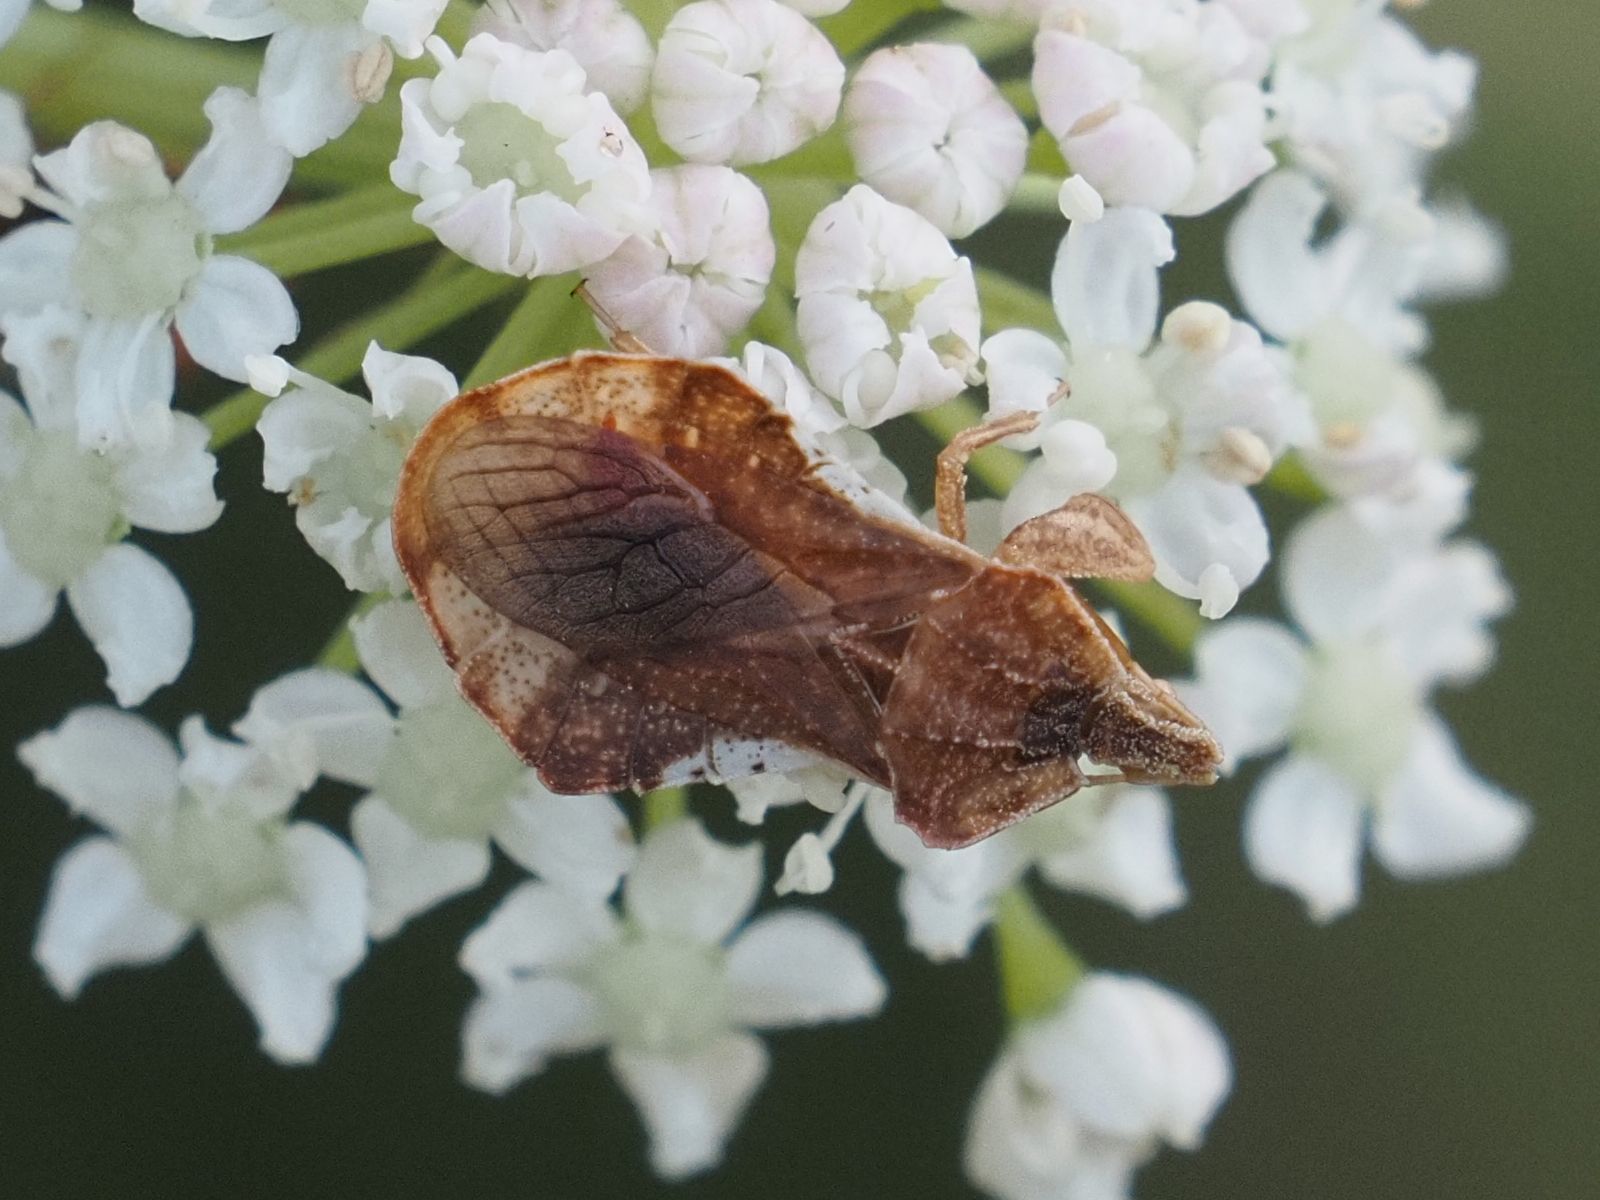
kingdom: Animalia
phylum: Arthropoda
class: Insecta
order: Hemiptera
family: Reduviidae
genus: Phymata
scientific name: Phymata crassipes
